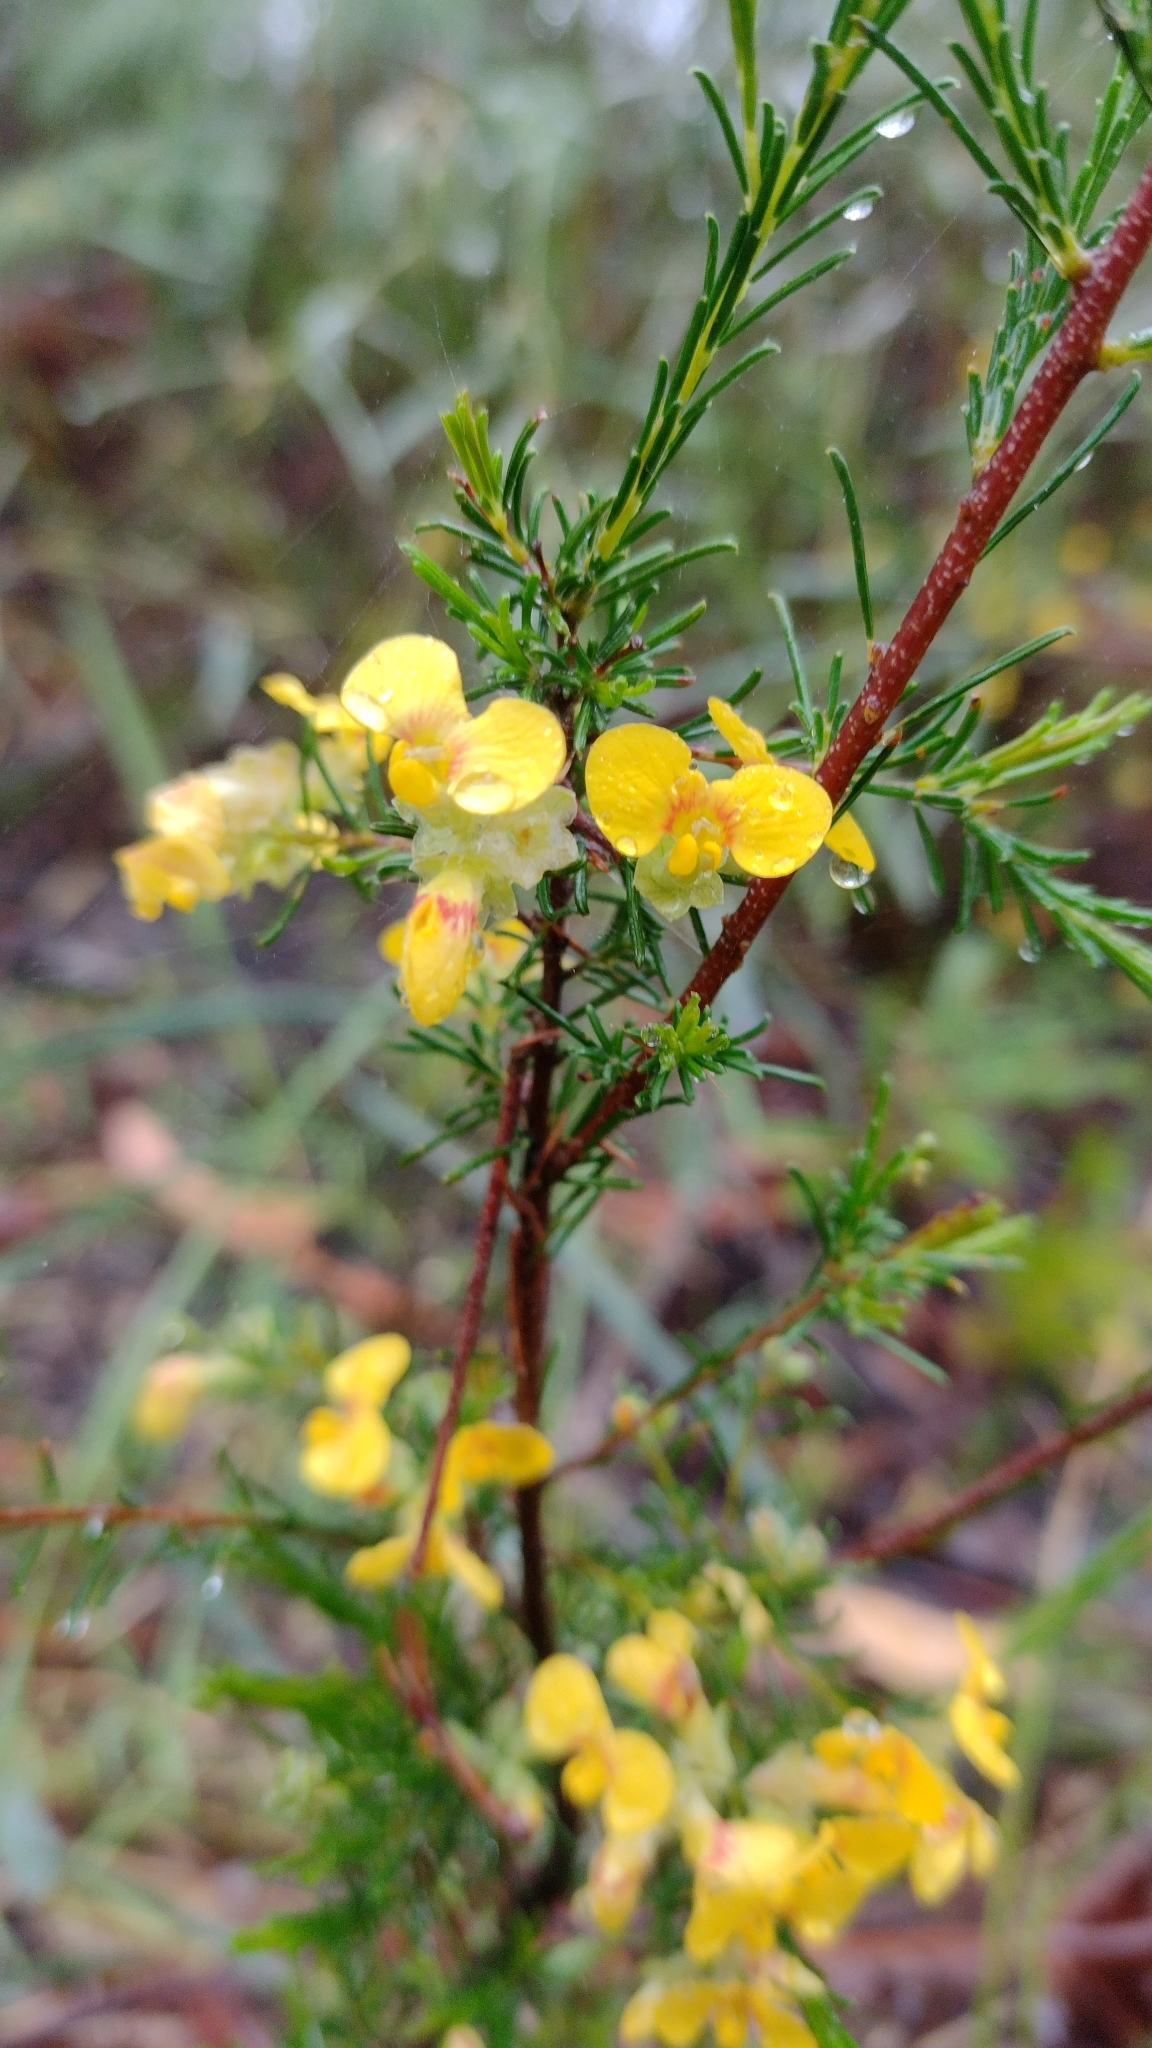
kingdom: Plantae
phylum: Tracheophyta
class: Magnoliopsida
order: Fabales
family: Fabaceae
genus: Dillwynia
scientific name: Dillwynia glaberrima
